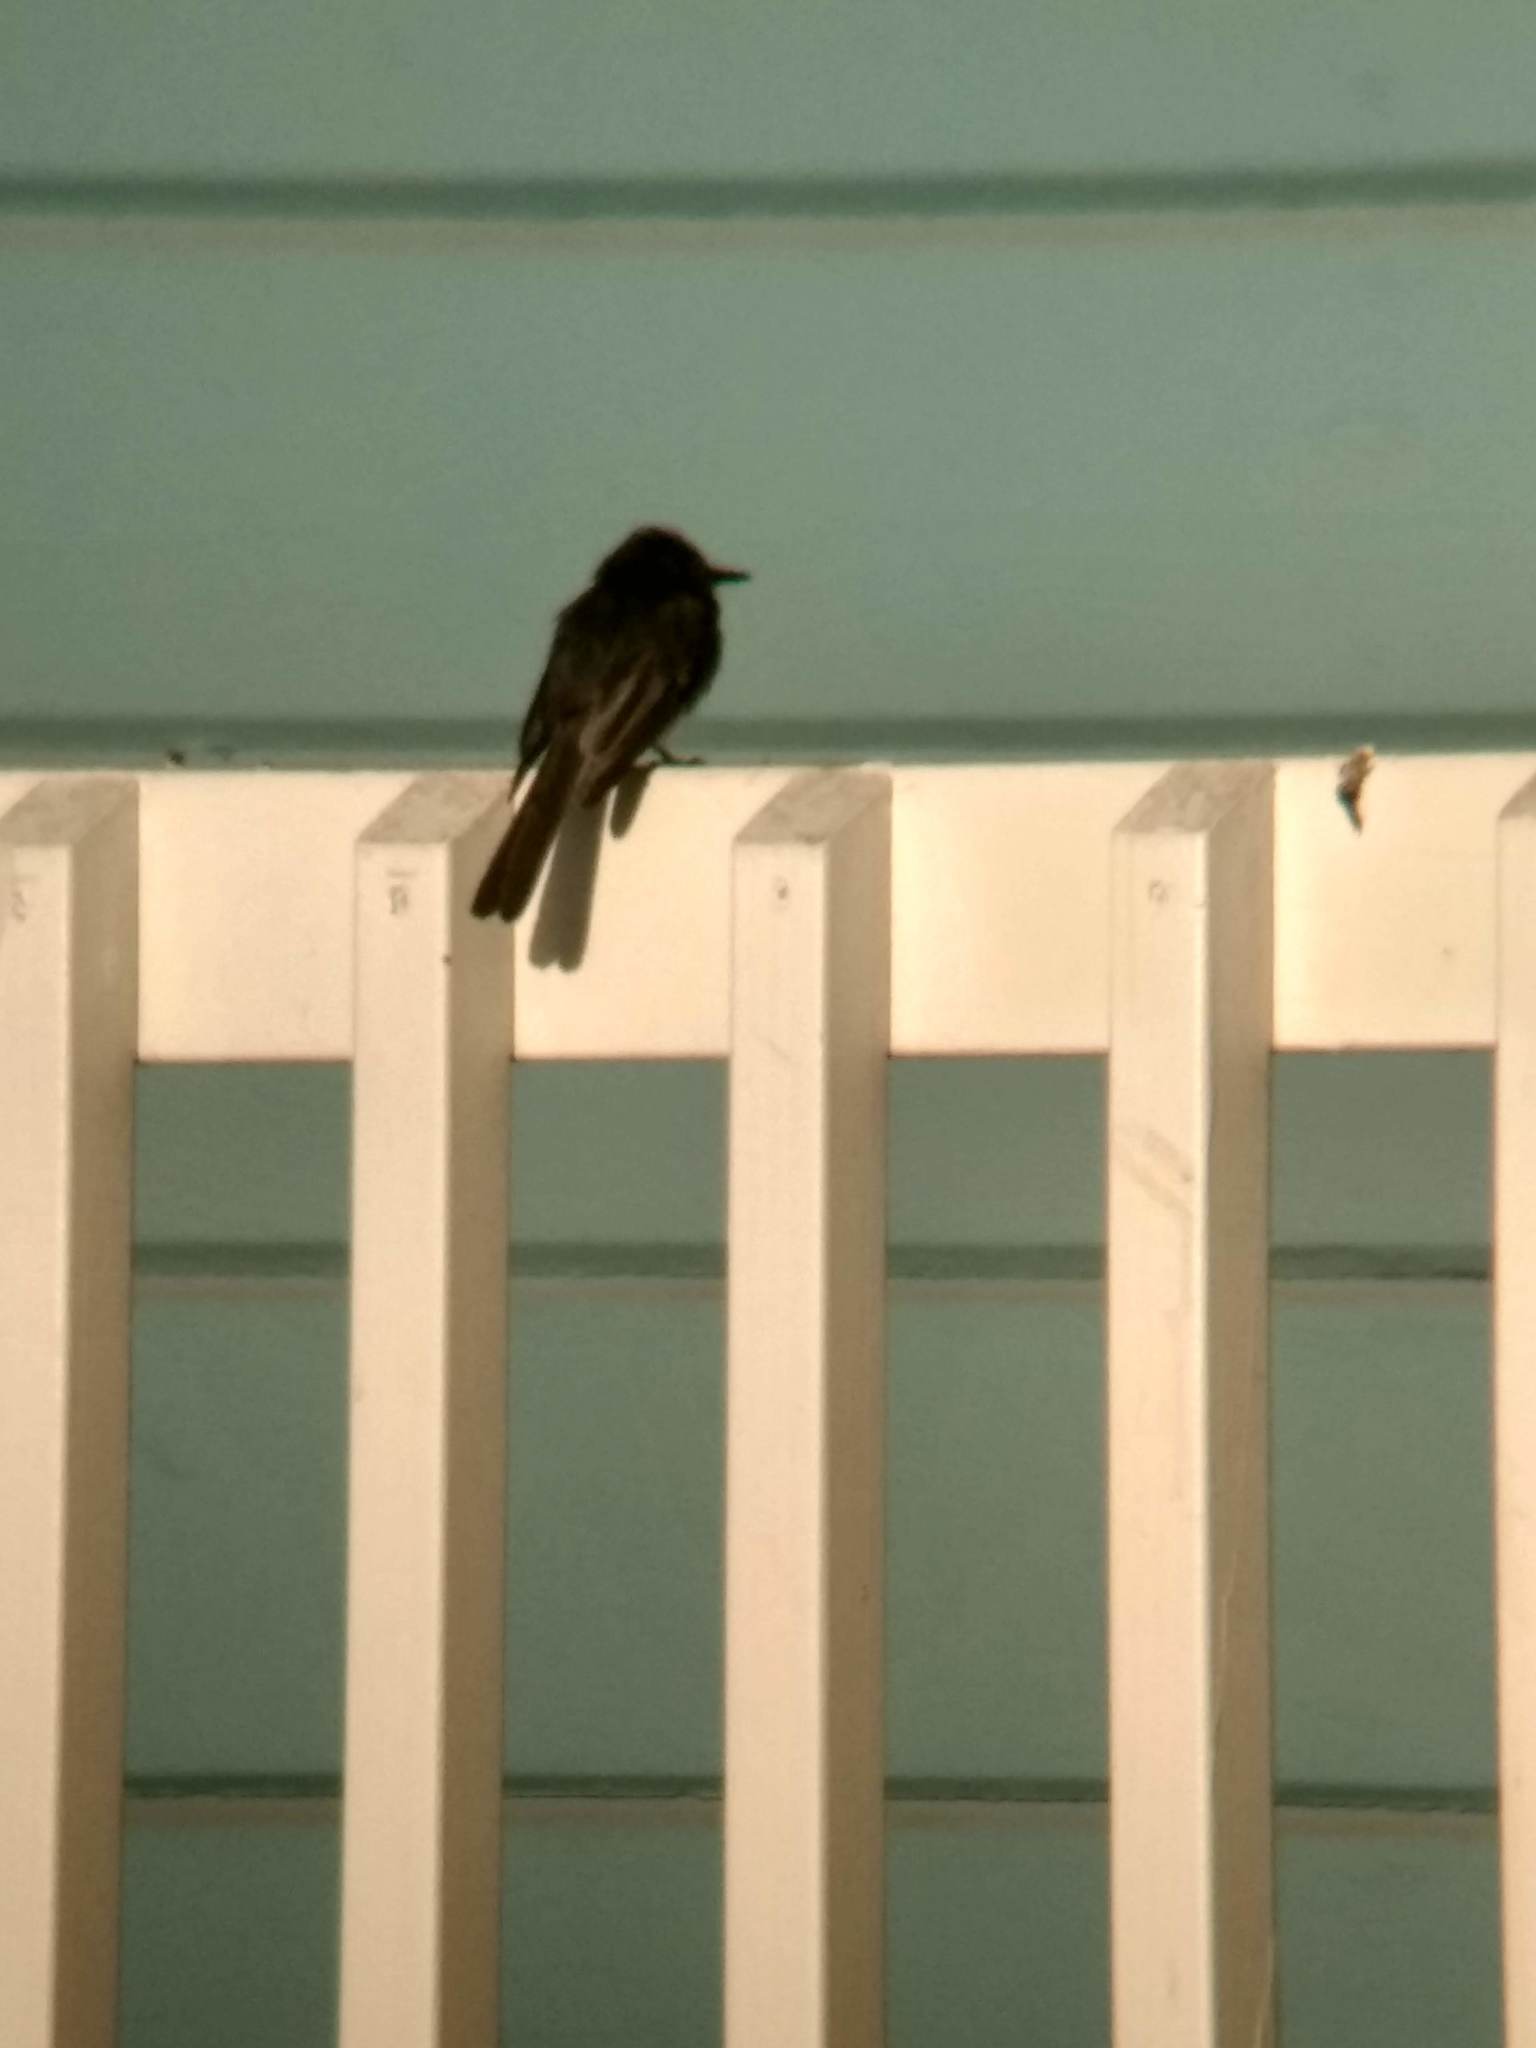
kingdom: Animalia
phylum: Chordata
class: Aves
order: Passeriformes
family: Tyrannidae
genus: Sayornis
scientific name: Sayornis nigricans
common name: Black phoebe
